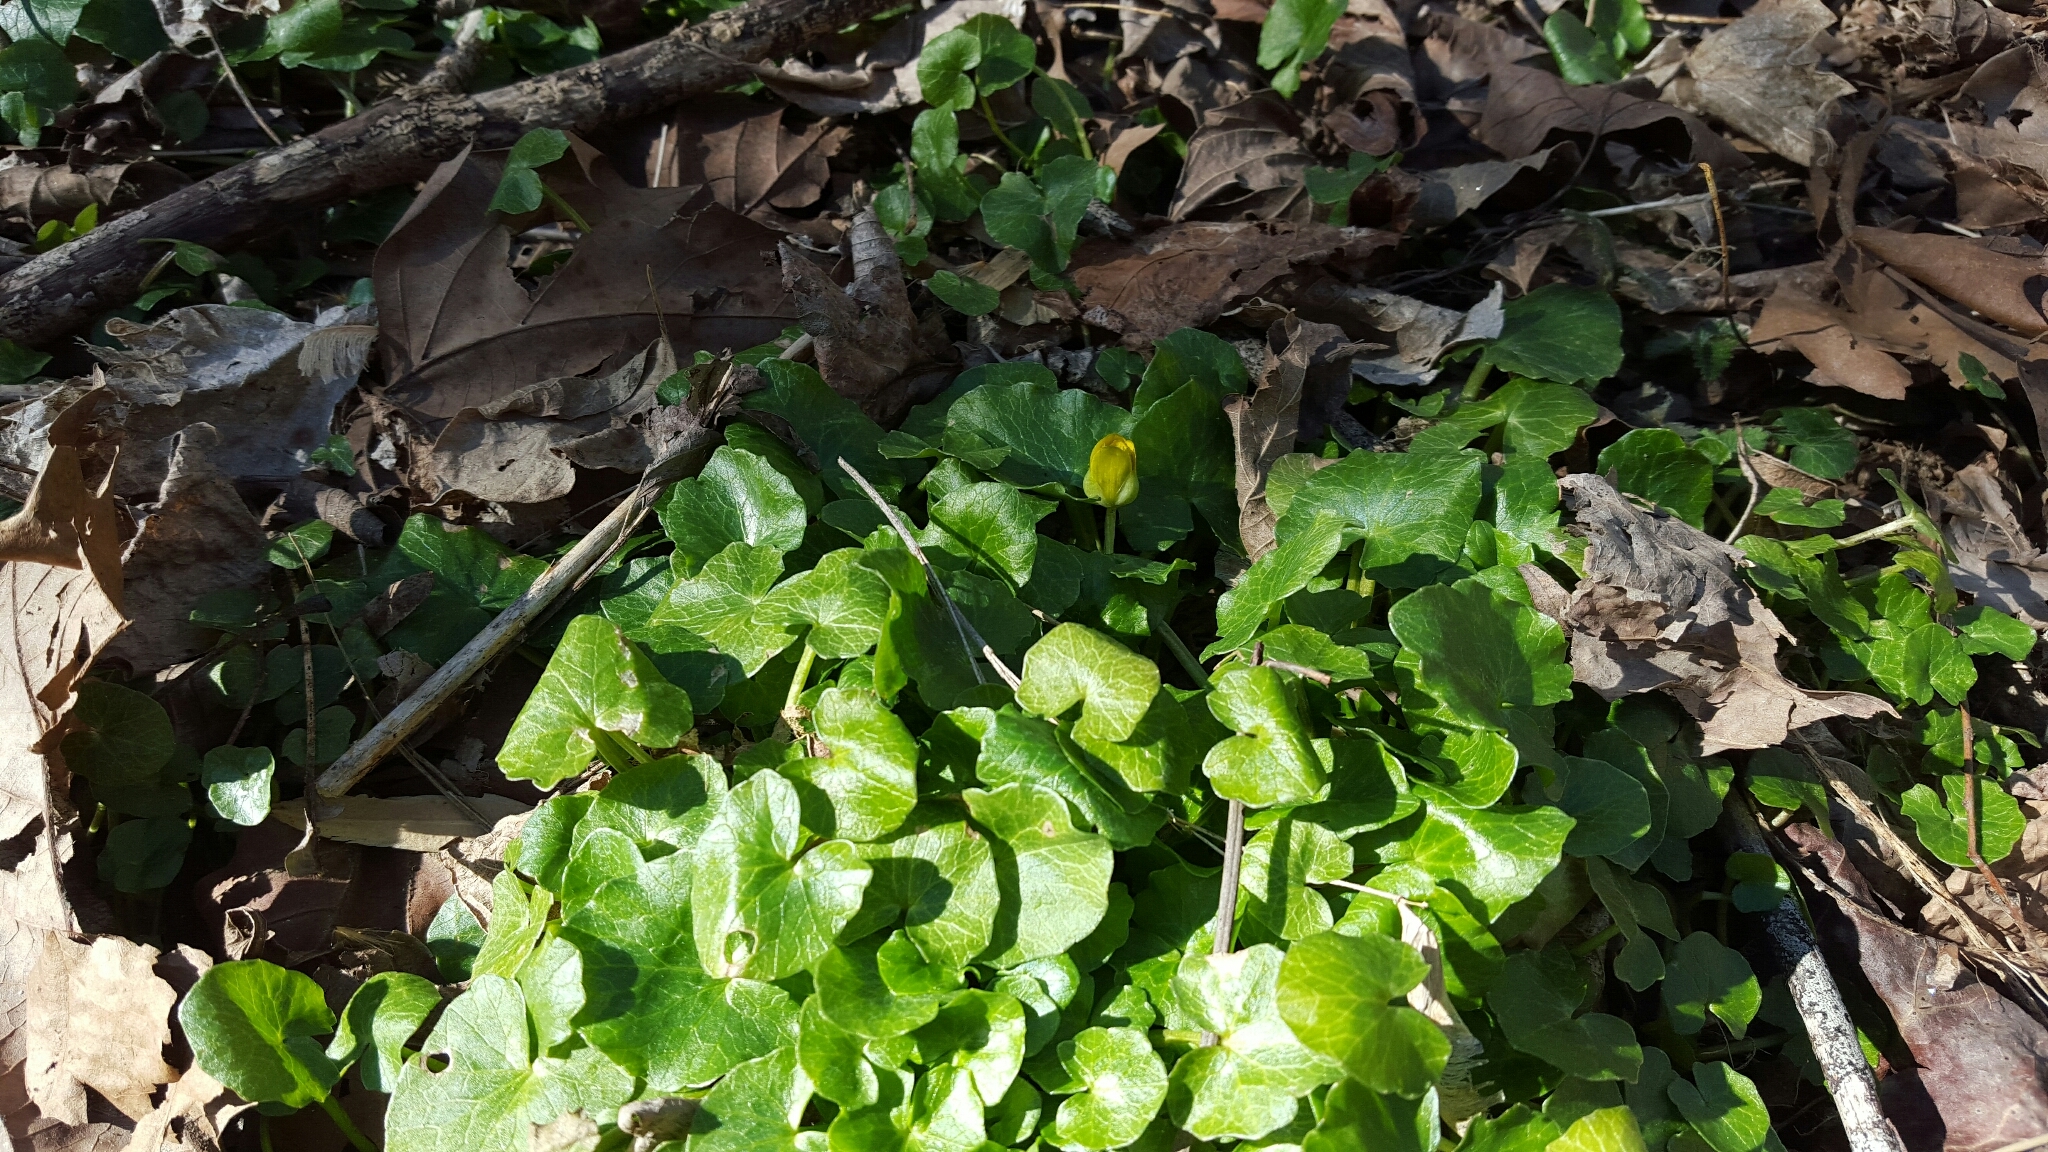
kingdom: Plantae
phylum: Tracheophyta
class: Magnoliopsida
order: Ranunculales
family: Ranunculaceae
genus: Ficaria
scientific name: Ficaria verna
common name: Lesser celandine
